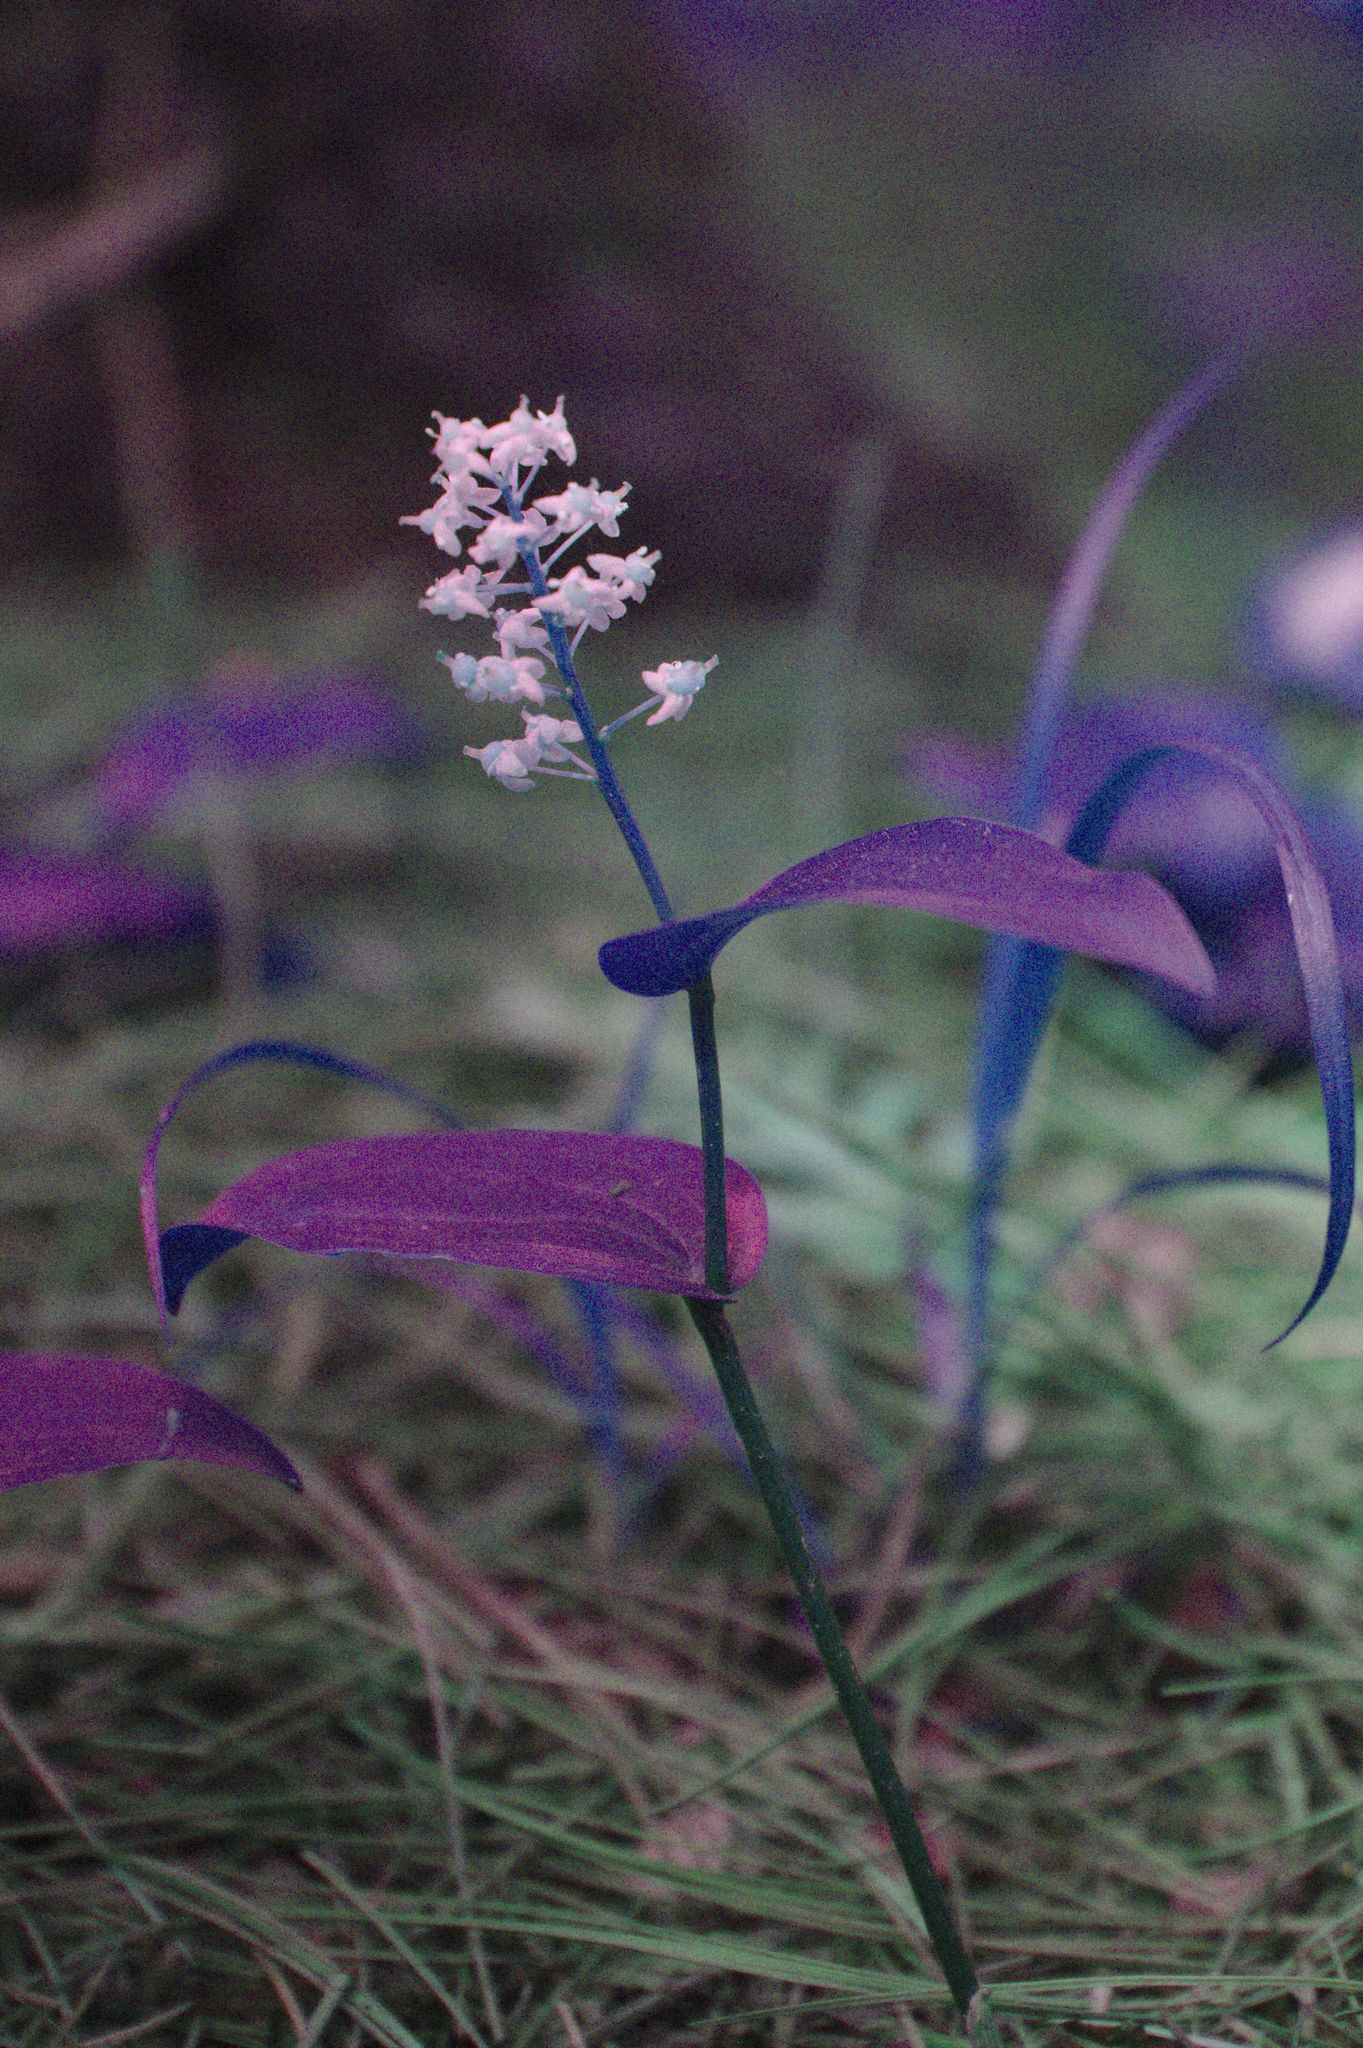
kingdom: Plantae
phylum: Tracheophyta
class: Liliopsida
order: Asparagales
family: Asparagaceae
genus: Maianthemum
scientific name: Maianthemum canadense
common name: False lily-of-the-valley
